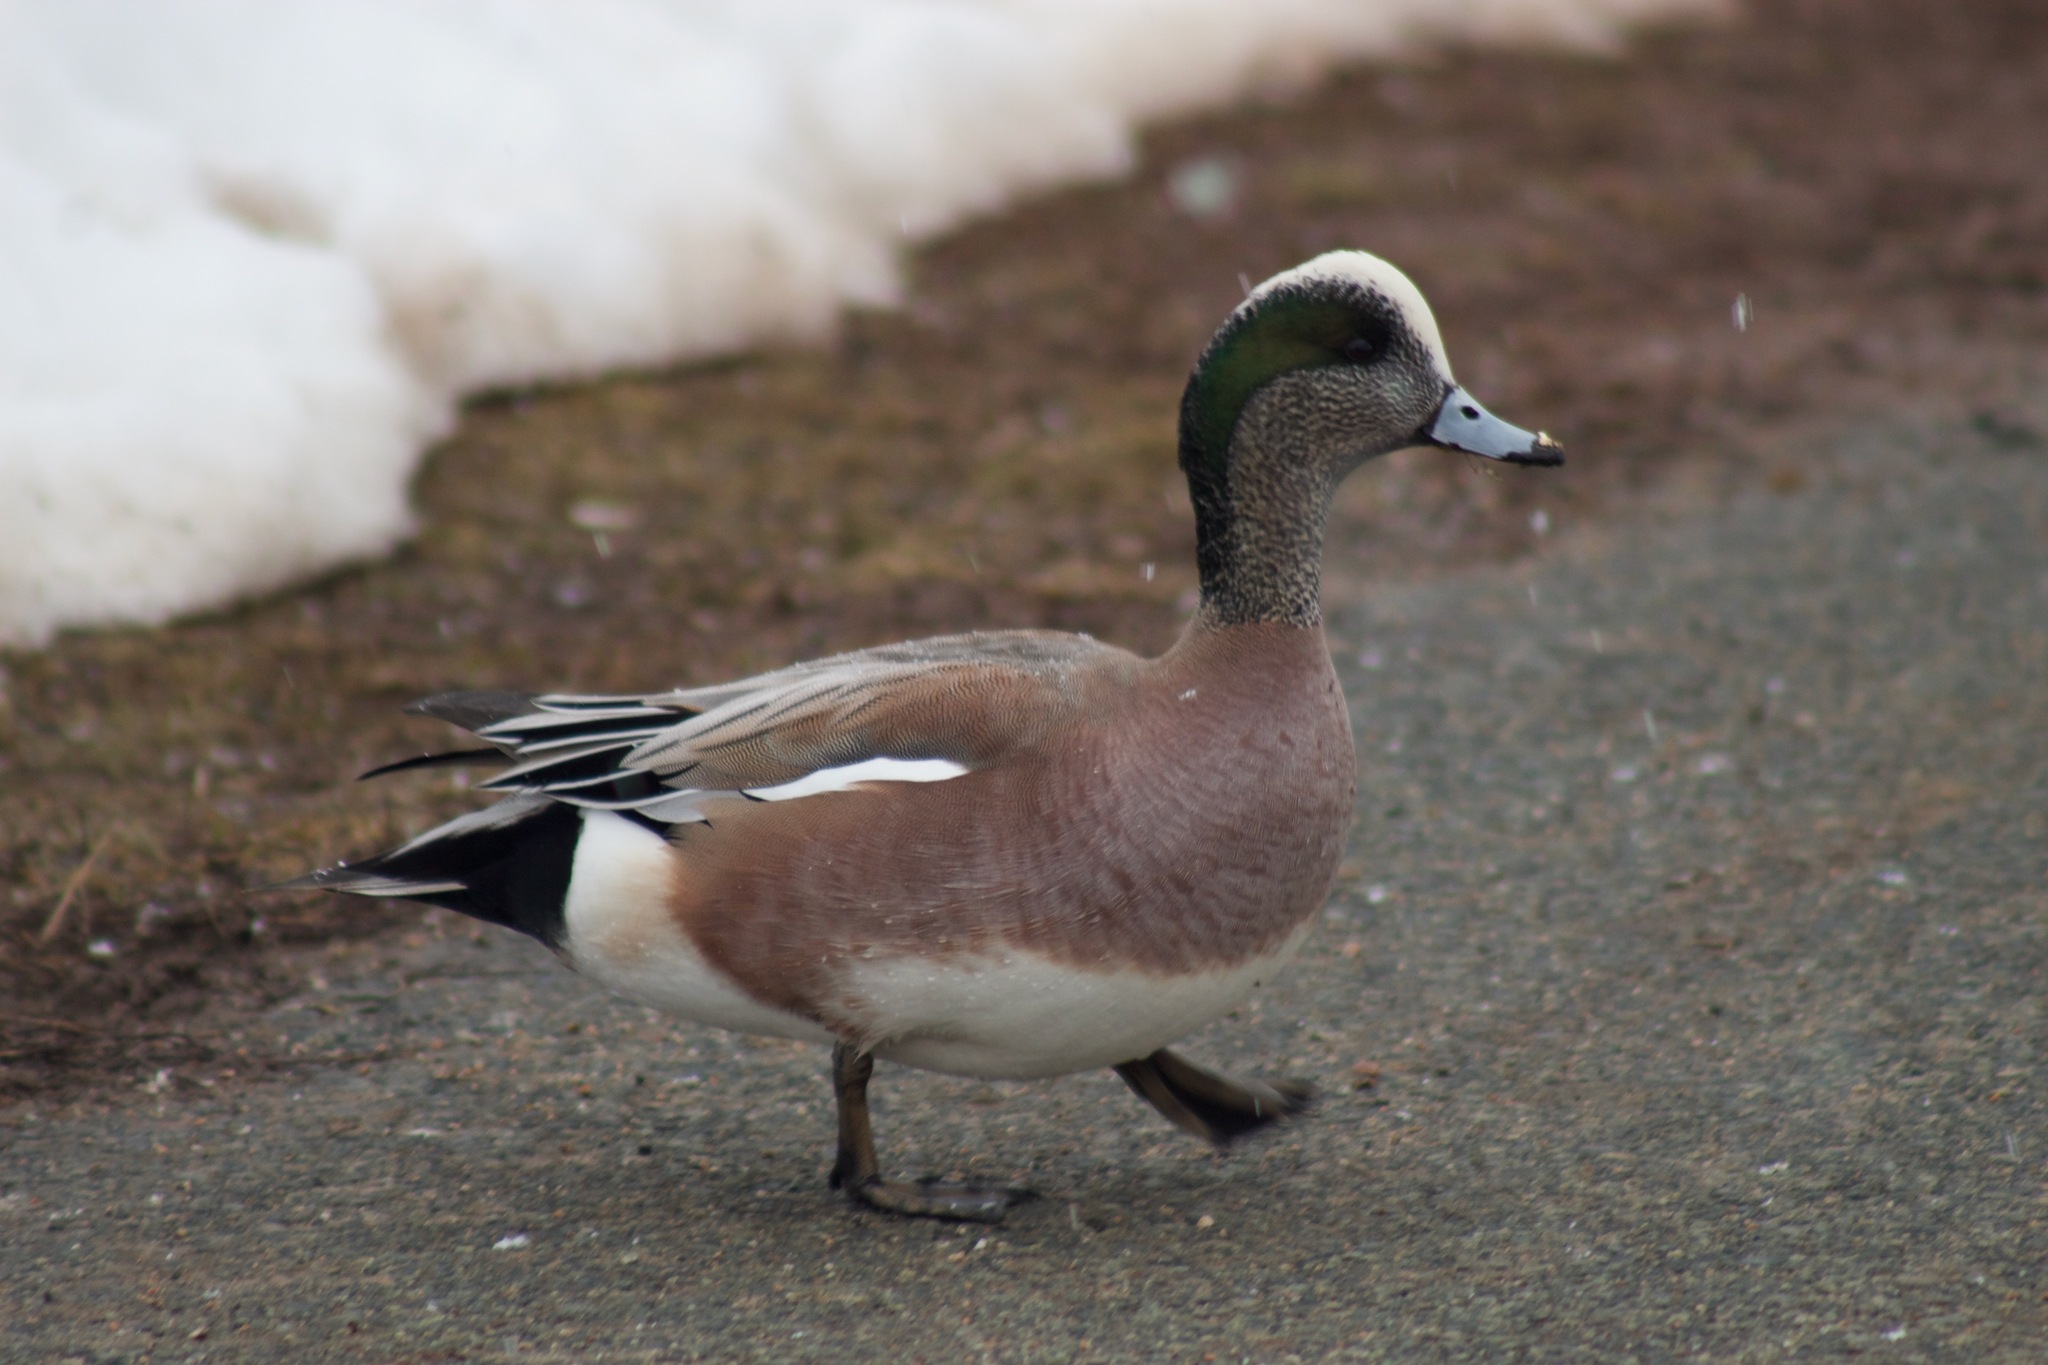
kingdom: Animalia
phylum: Chordata
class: Aves
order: Anseriformes
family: Anatidae
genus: Mareca
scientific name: Mareca americana
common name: American wigeon
